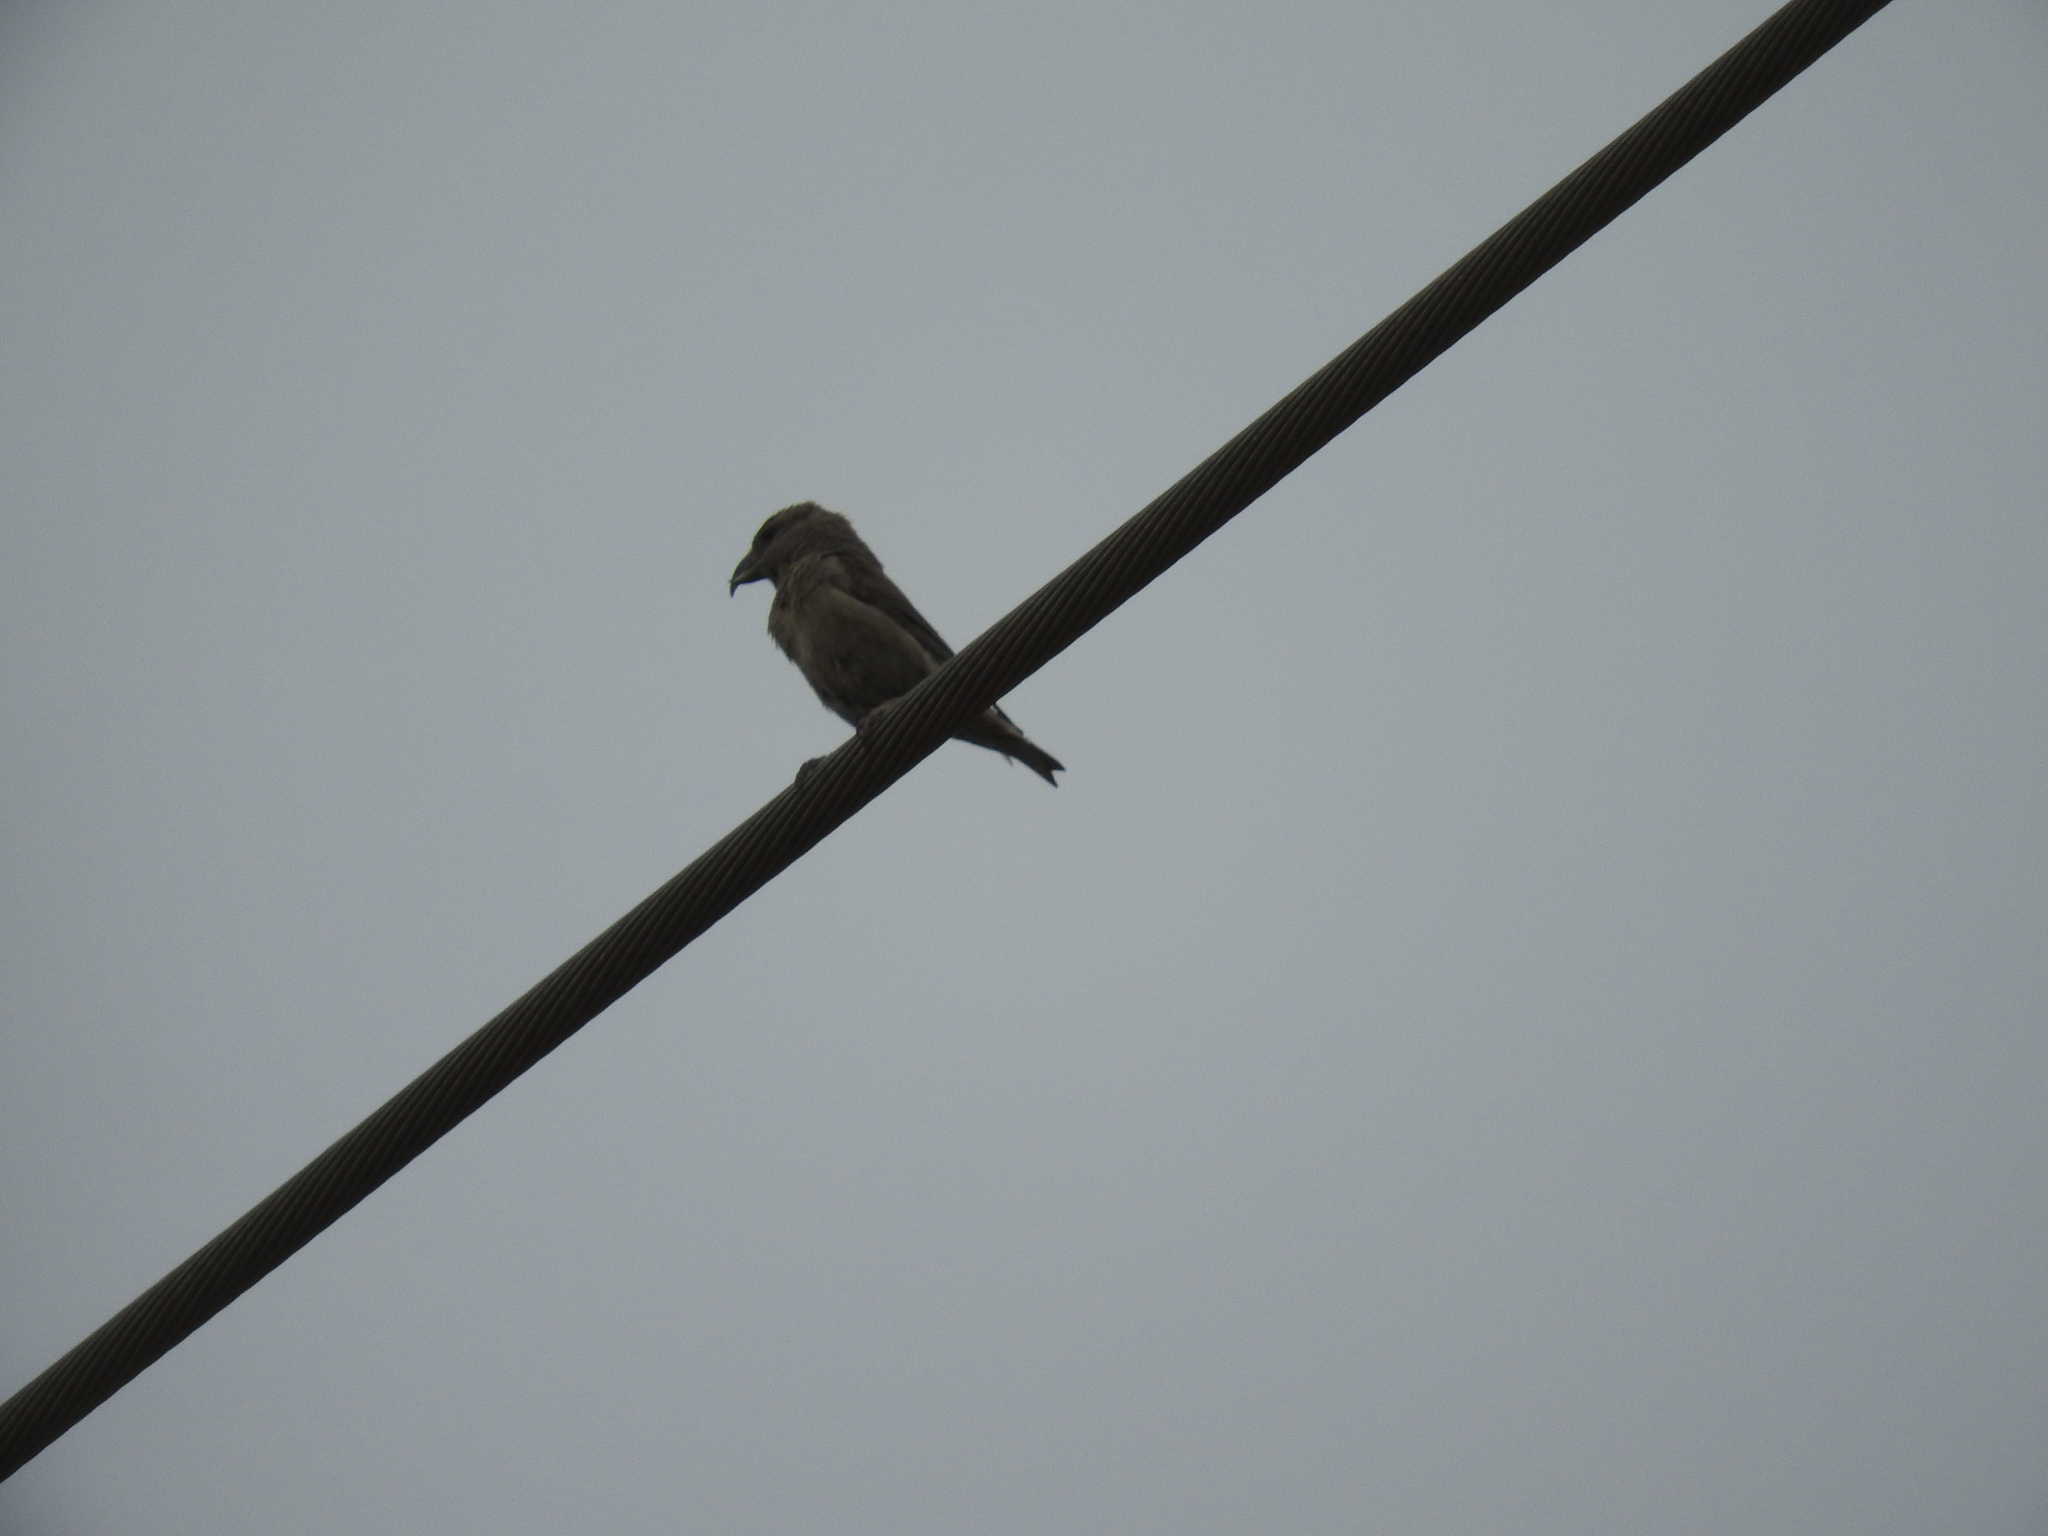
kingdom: Animalia
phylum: Chordata
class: Aves
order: Passeriformes
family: Fringillidae
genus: Loxia
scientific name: Loxia curvirostra
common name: Red crossbill
